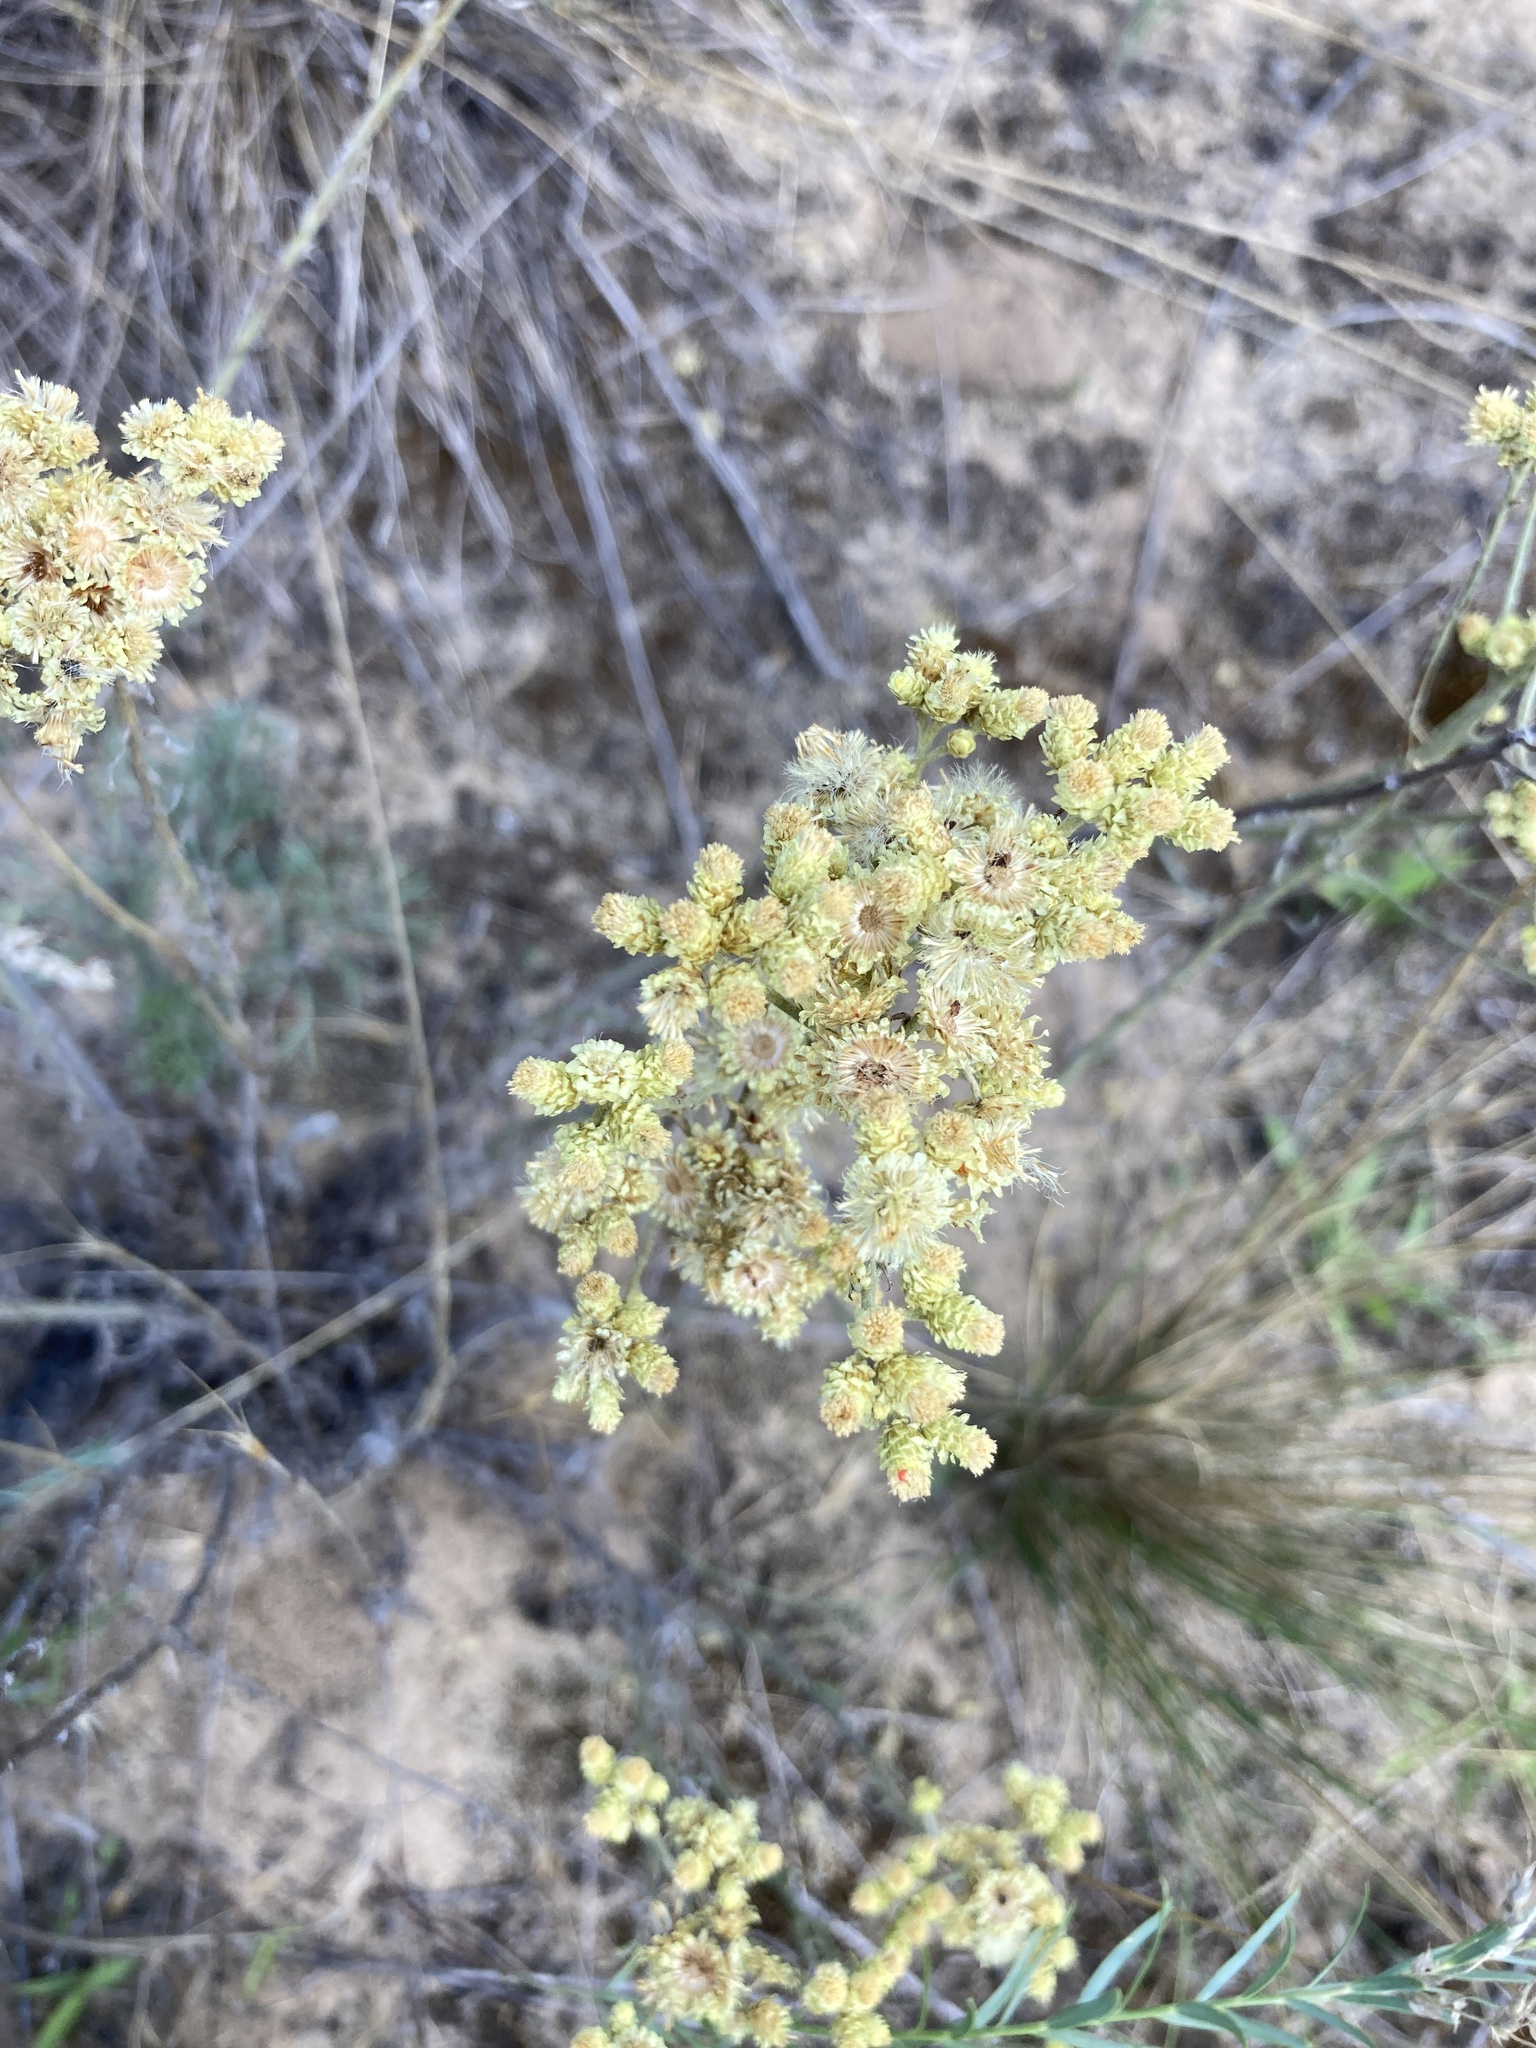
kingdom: Plantae
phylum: Tracheophyta
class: Magnoliopsida
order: Asterales
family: Asteraceae
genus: Helichrysum
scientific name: Helichrysum arenarium
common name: Strawflower
